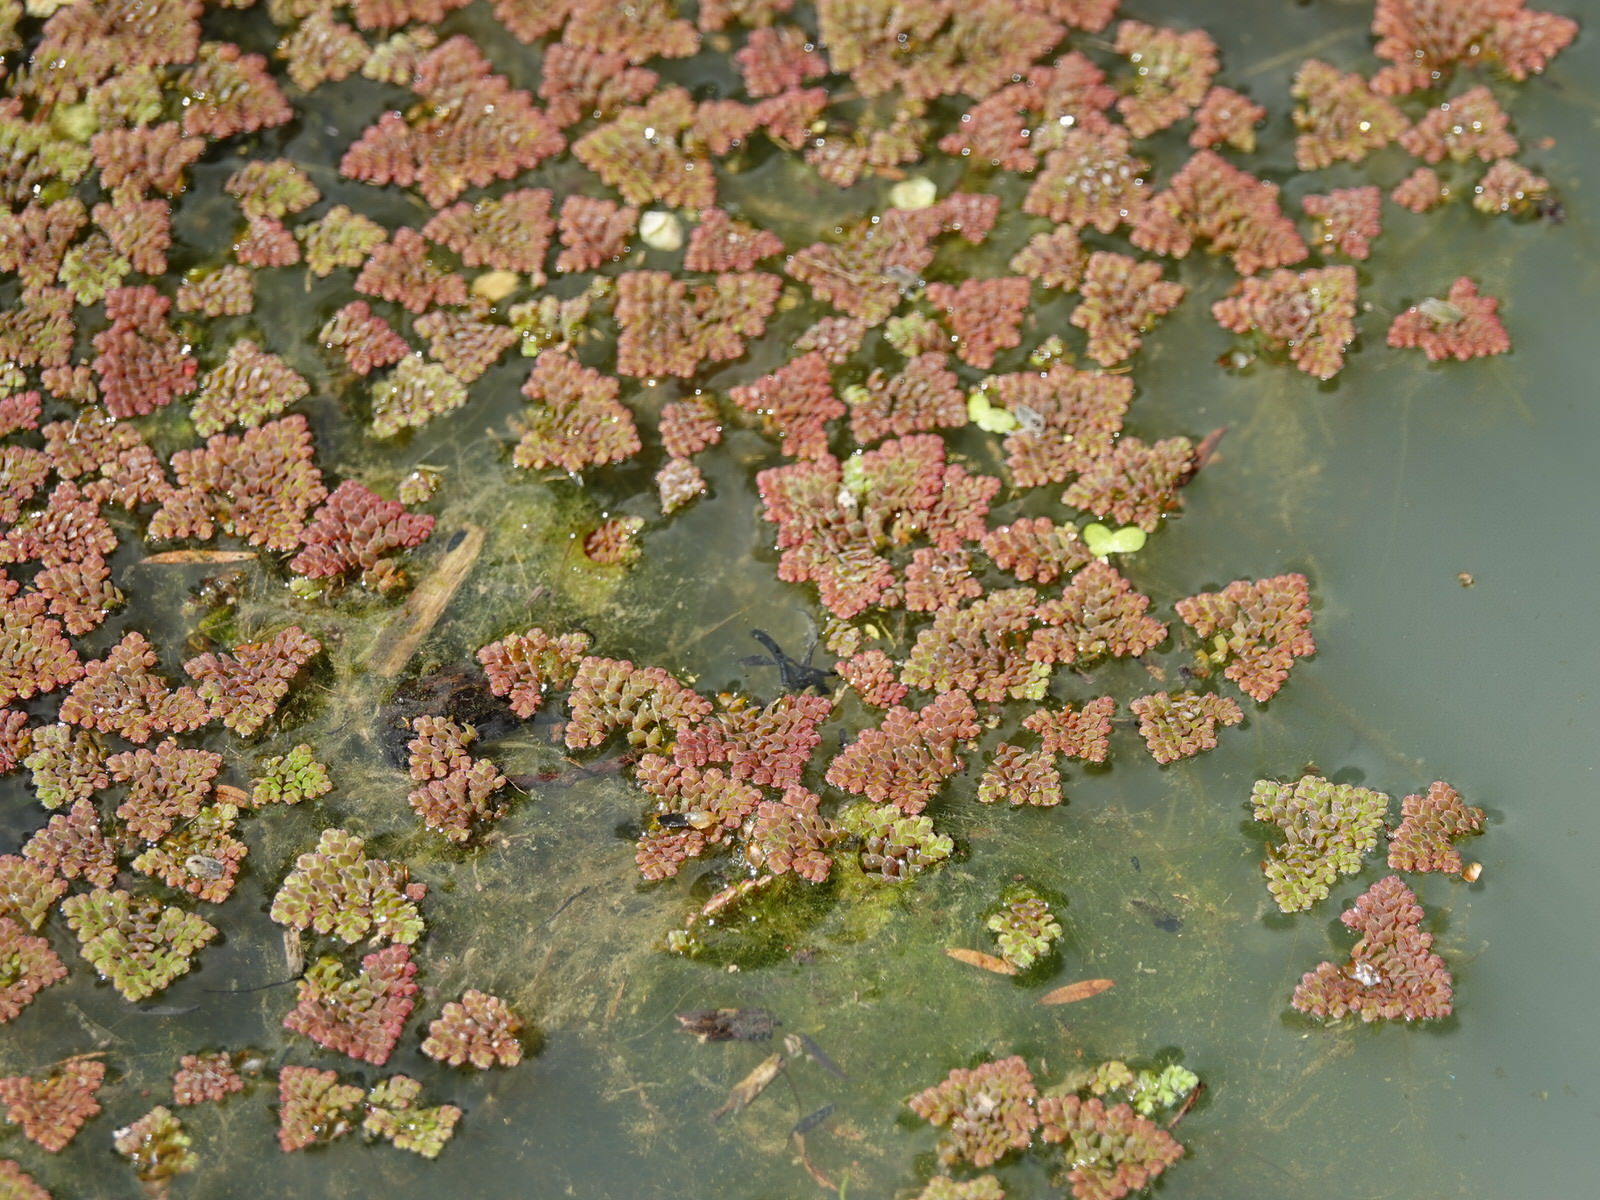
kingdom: Plantae
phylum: Tracheophyta
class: Polypodiopsida
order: Salviniales
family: Salviniaceae
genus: Azolla
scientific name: Azolla pinnata
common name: Ferny azolla
